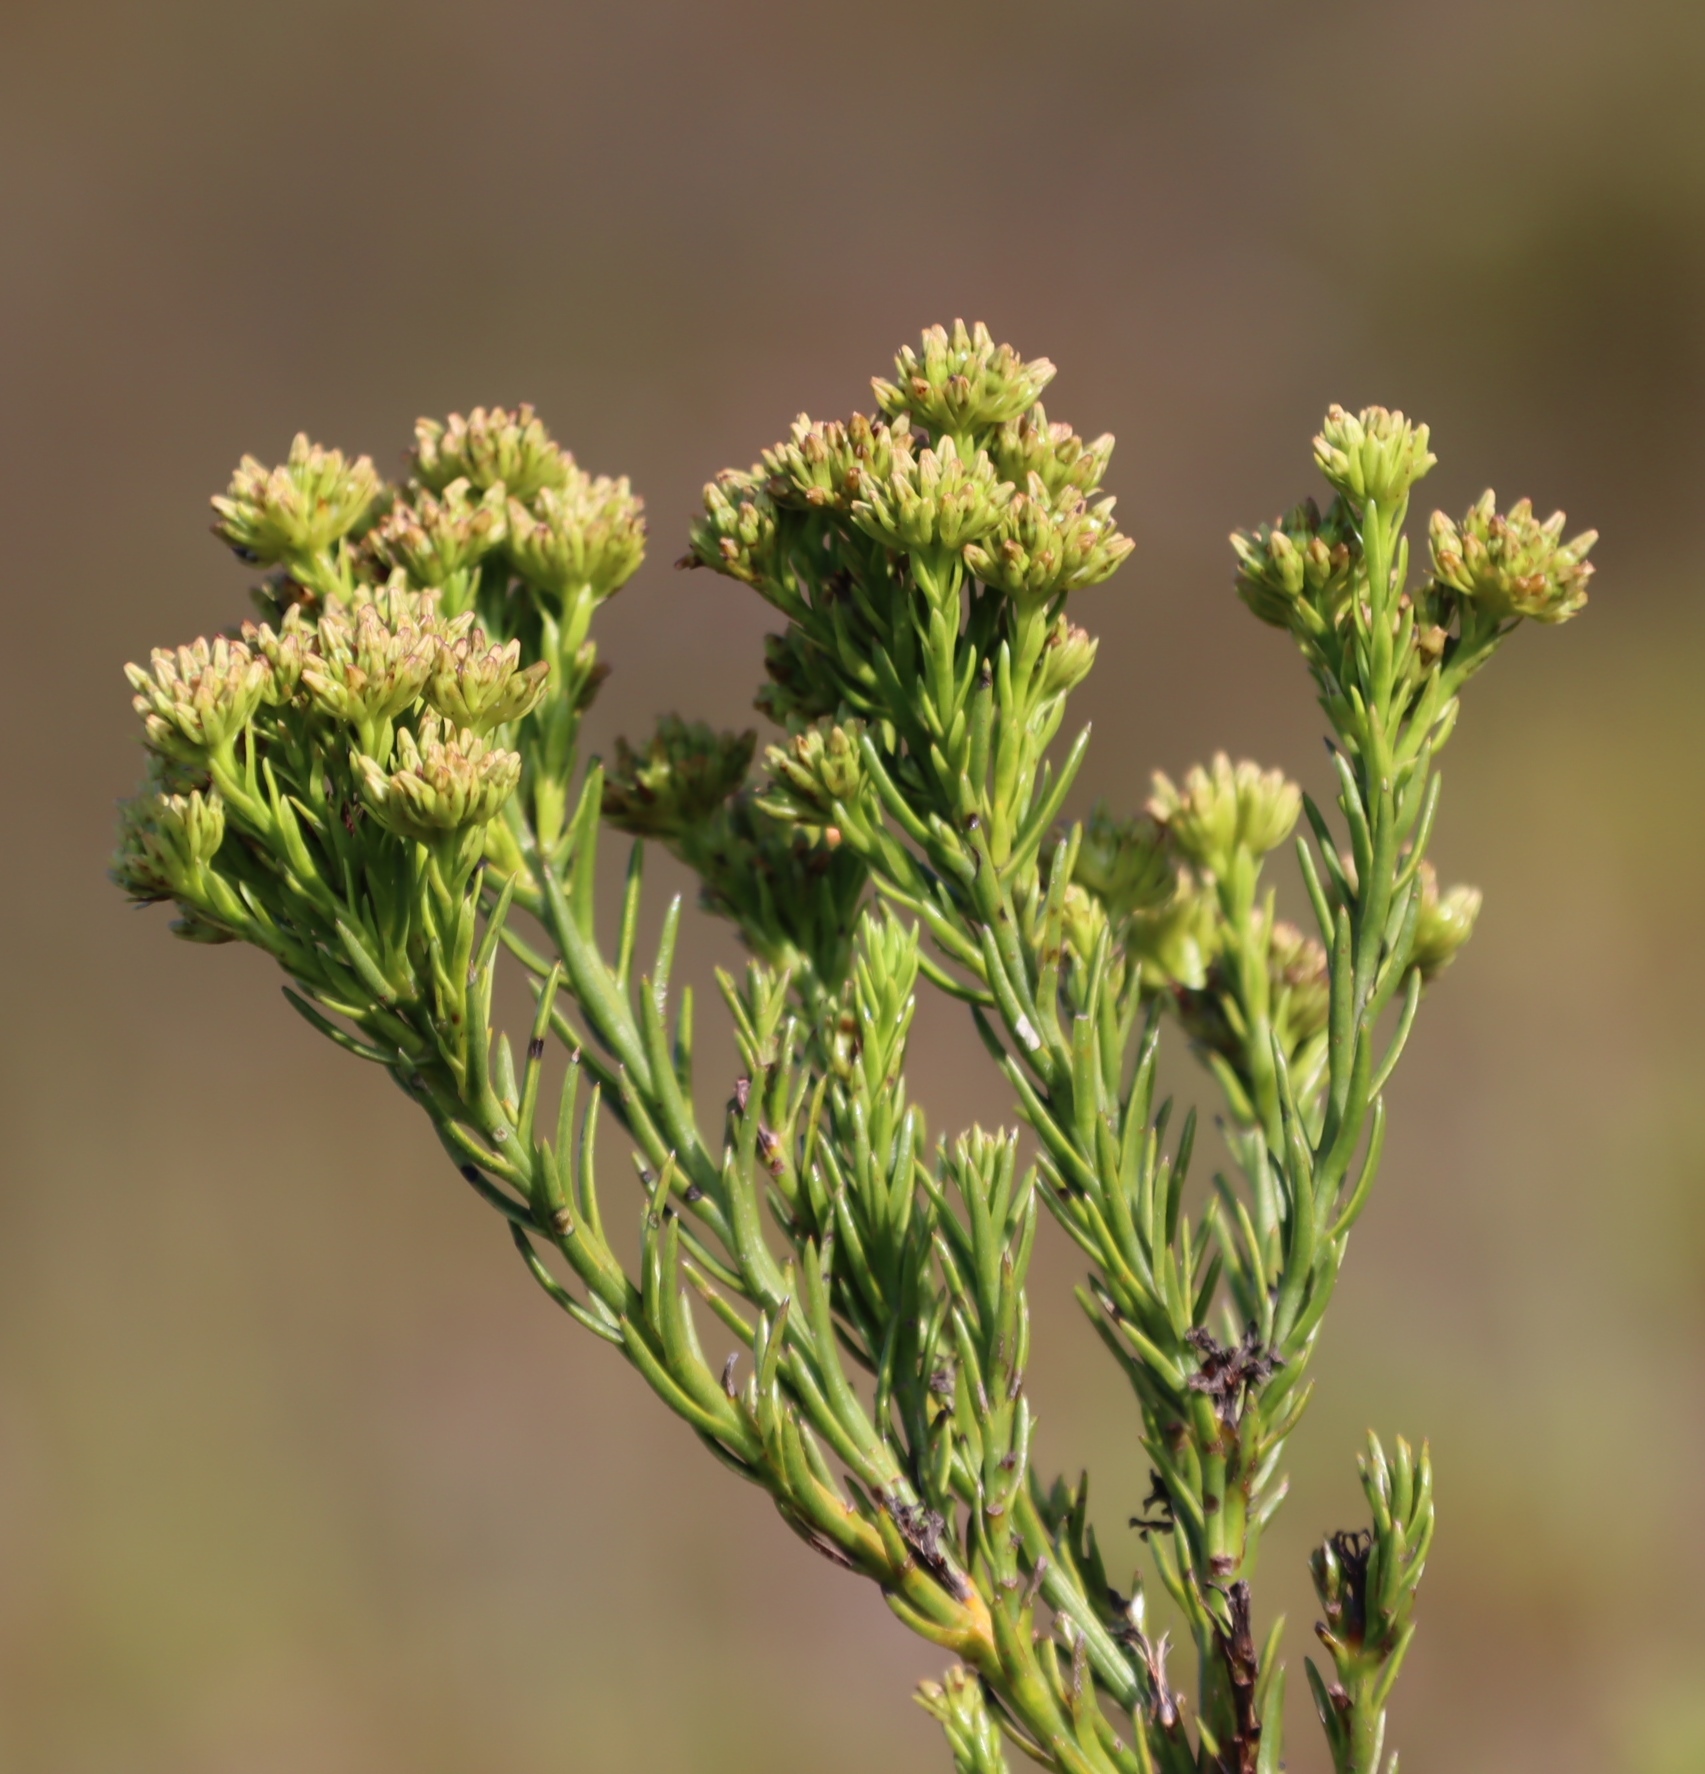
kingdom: Plantae
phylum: Tracheophyta
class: Magnoliopsida
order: Santalales
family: Thesiaceae
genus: Thesium
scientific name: Thesium penicillatum
